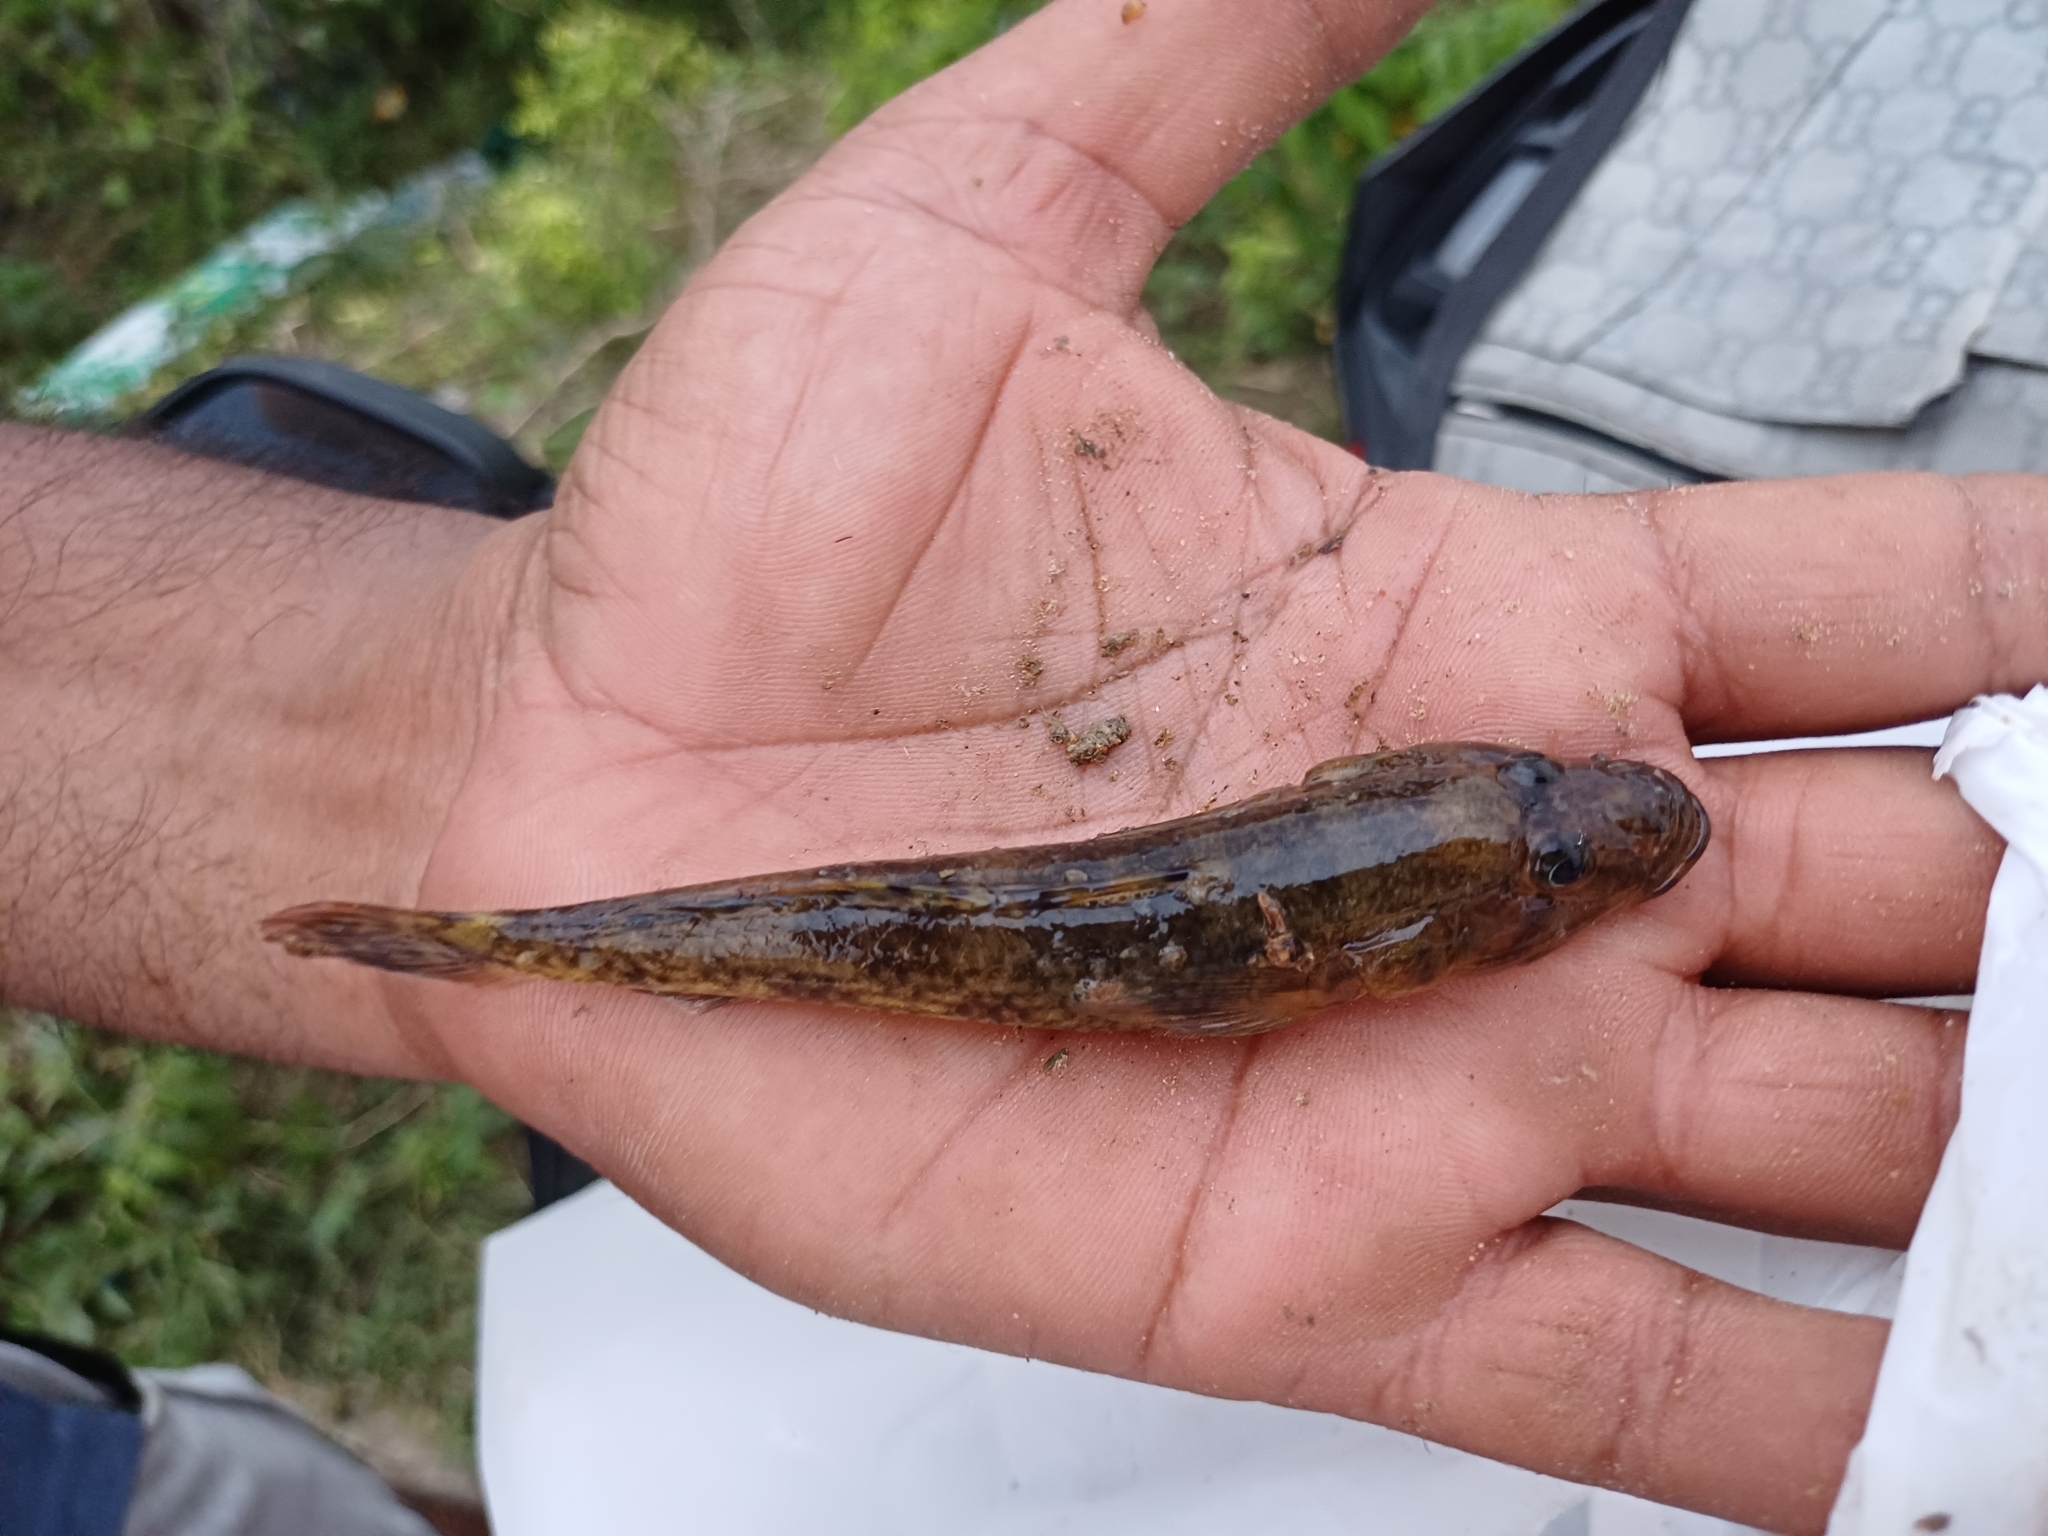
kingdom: Animalia
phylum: Chordata
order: Perciformes
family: Gobiidae
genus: Glossogobius
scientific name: Glossogobius giuris
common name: Tank goby
